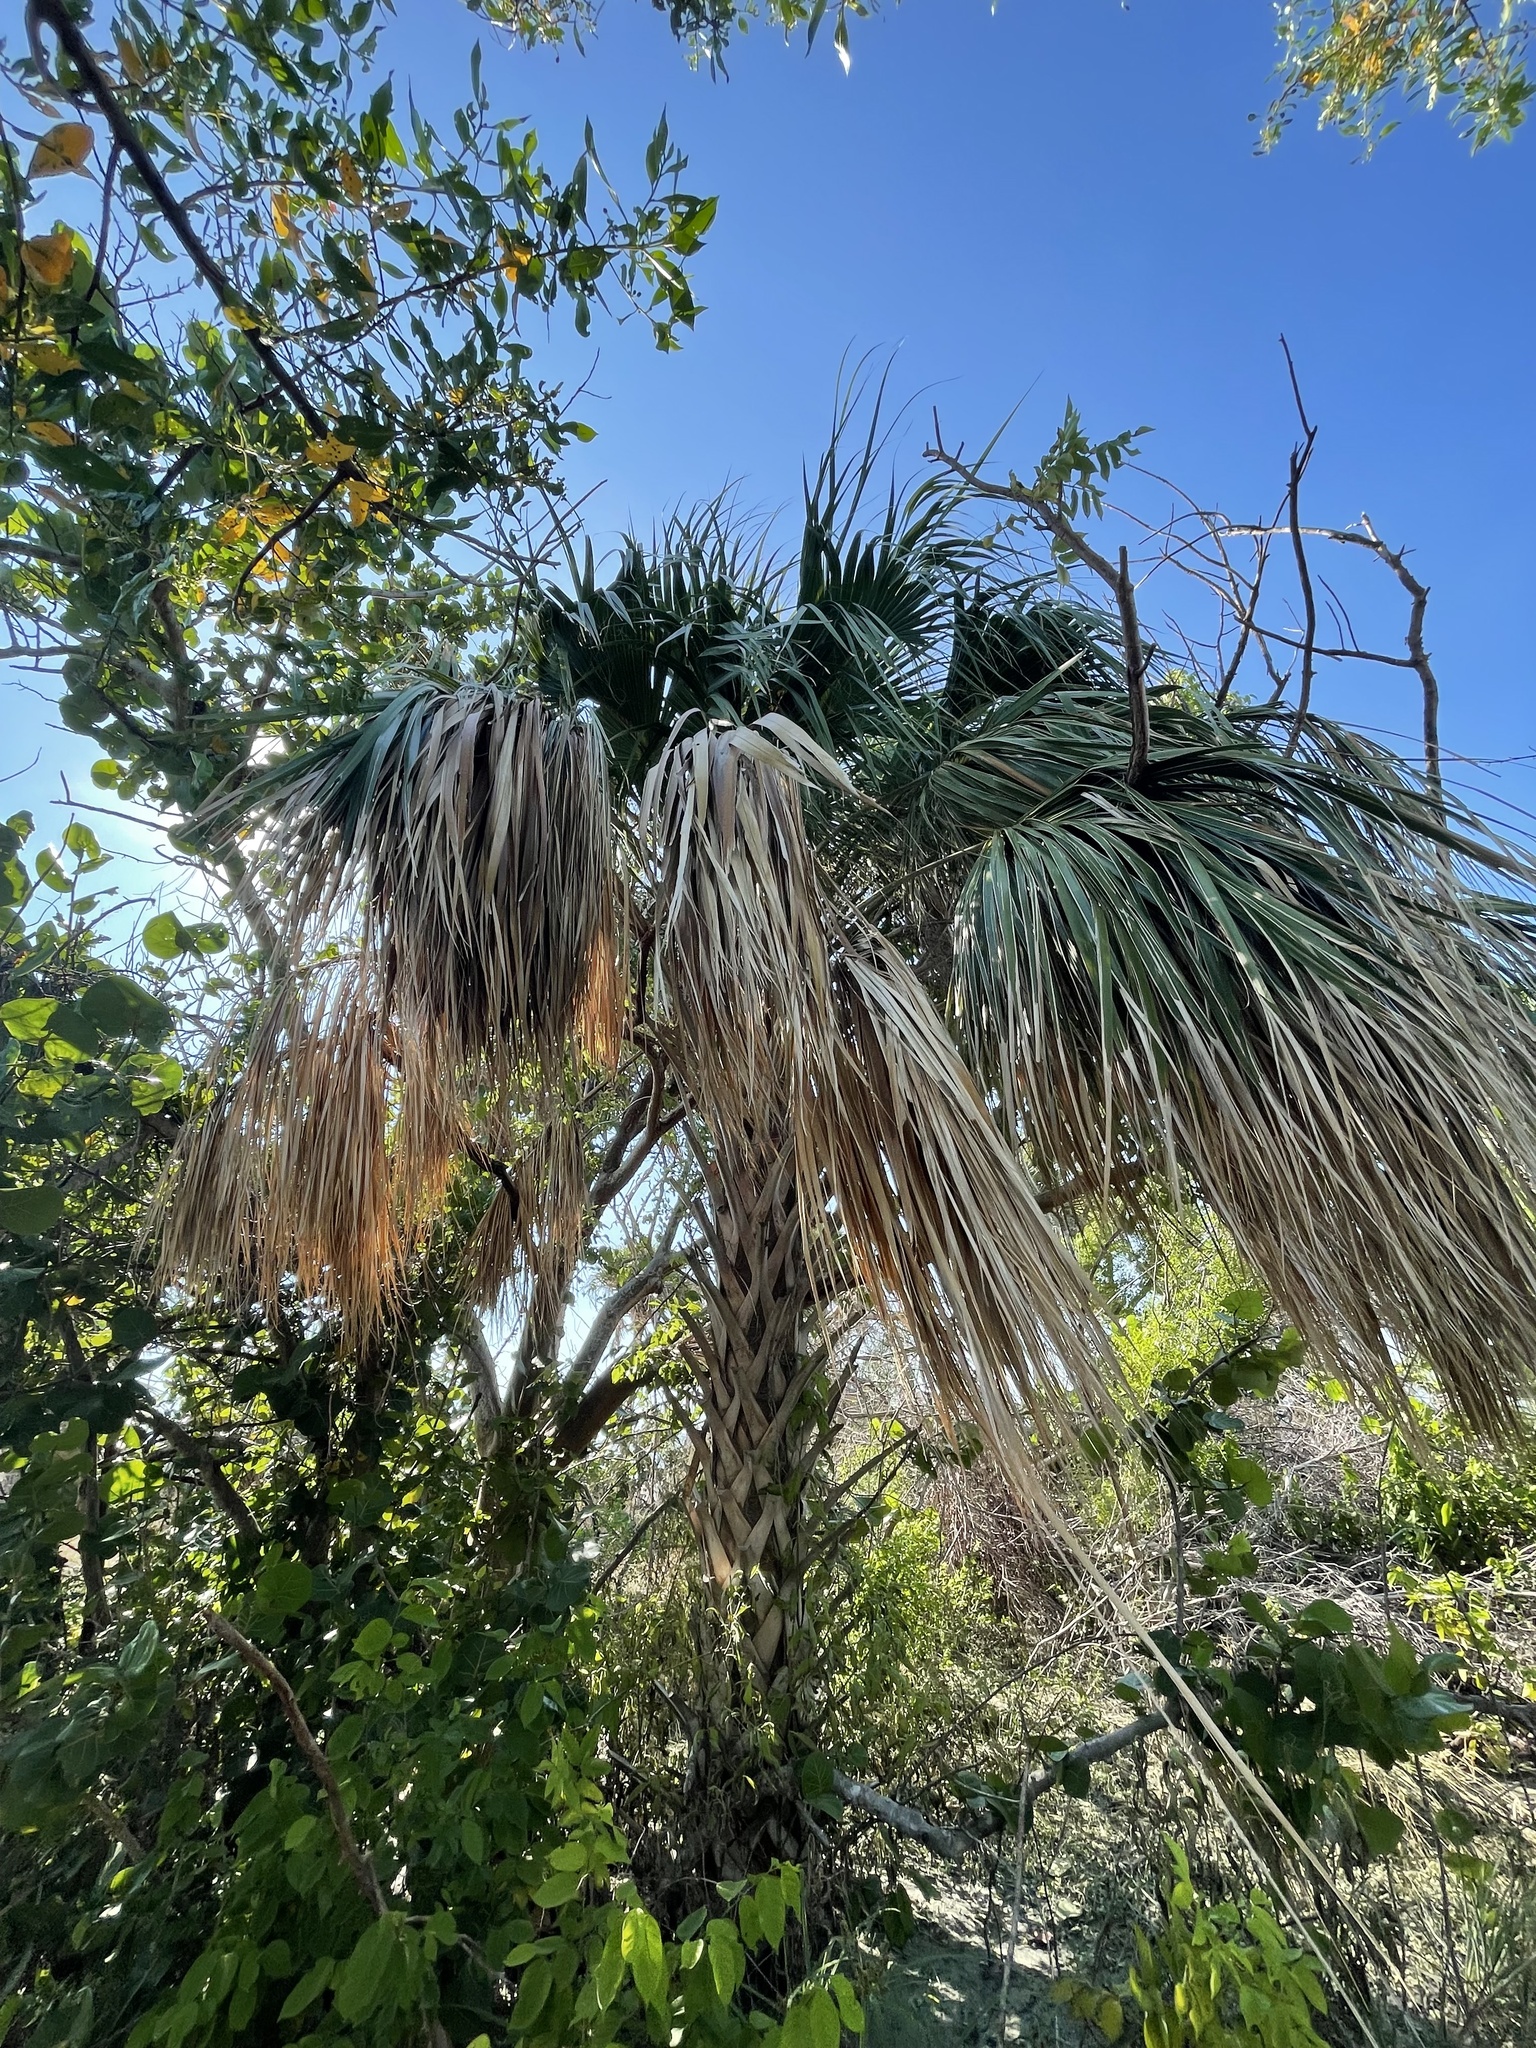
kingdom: Plantae
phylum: Tracheophyta
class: Liliopsida
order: Arecales
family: Arecaceae
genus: Sabal
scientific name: Sabal palmetto
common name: Blue palmetto
